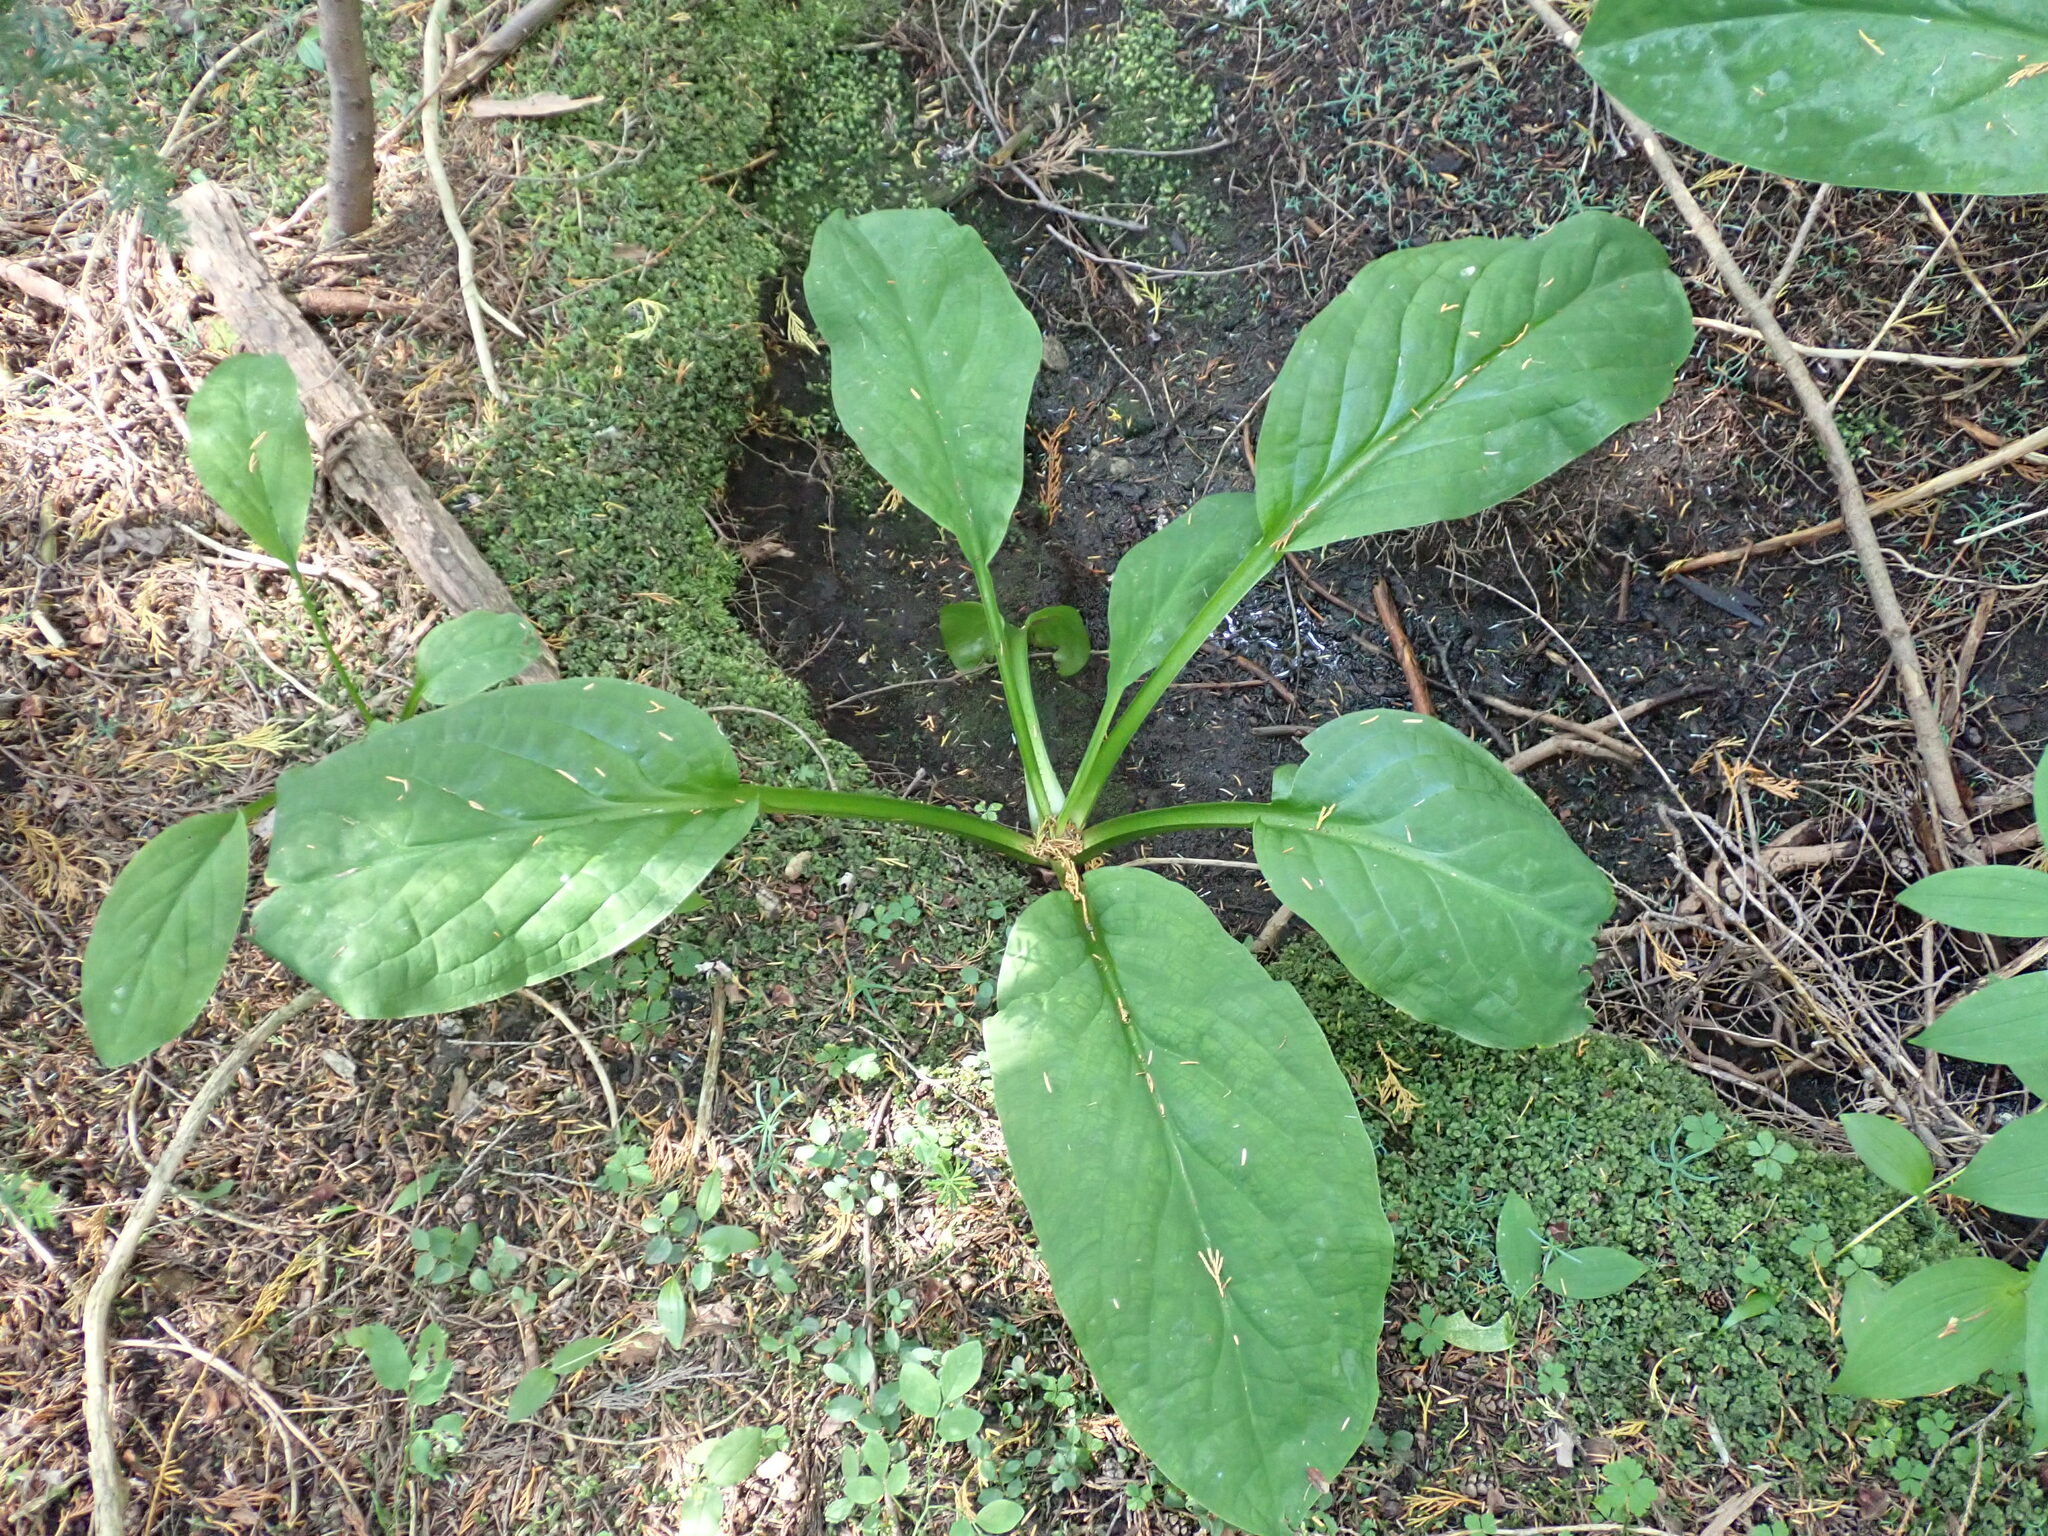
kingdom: Plantae
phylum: Tracheophyta
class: Liliopsida
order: Alismatales
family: Araceae
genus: Lysichiton
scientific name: Lysichiton americanus
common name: American skunk cabbage
